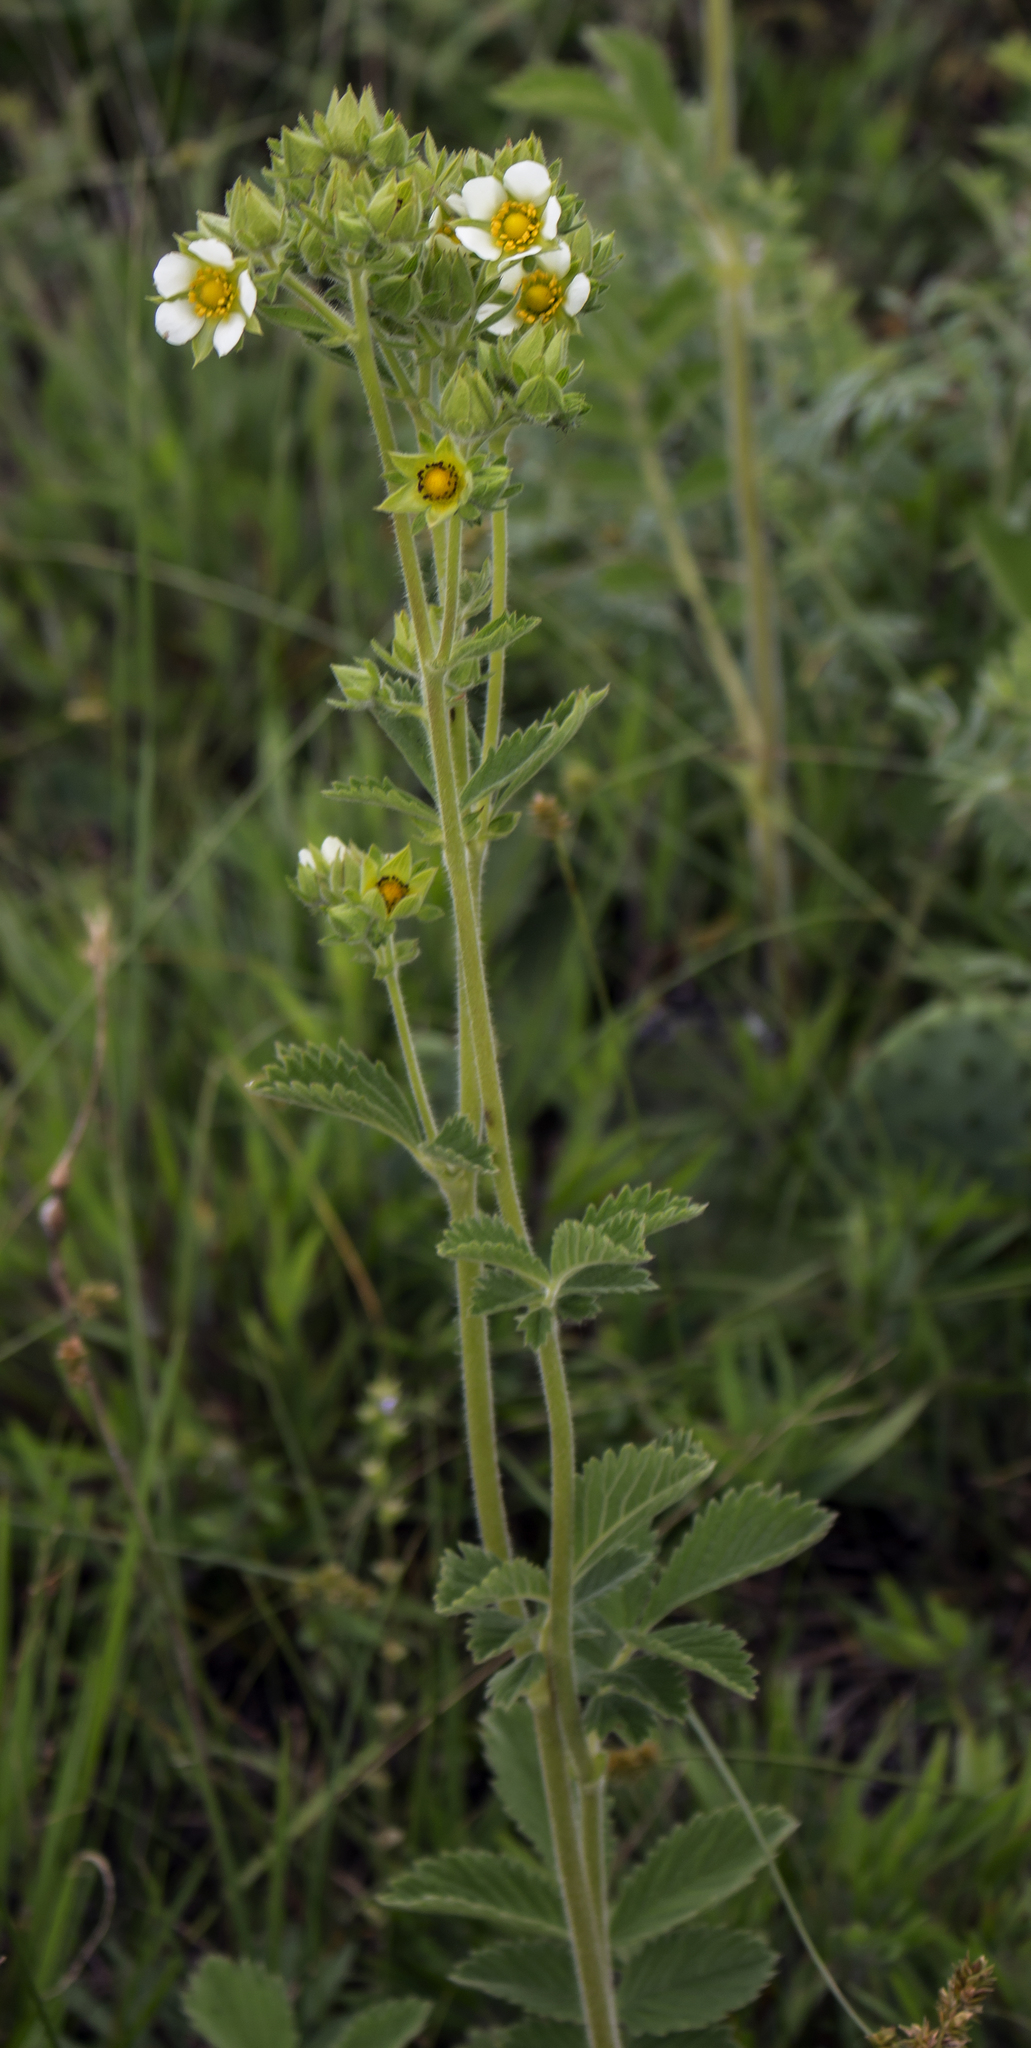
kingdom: Plantae
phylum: Tracheophyta
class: Magnoliopsida
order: Rosales
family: Rosaceae
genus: Drymocallis
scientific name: Drymocallis arguta
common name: Tall cinquefoil
